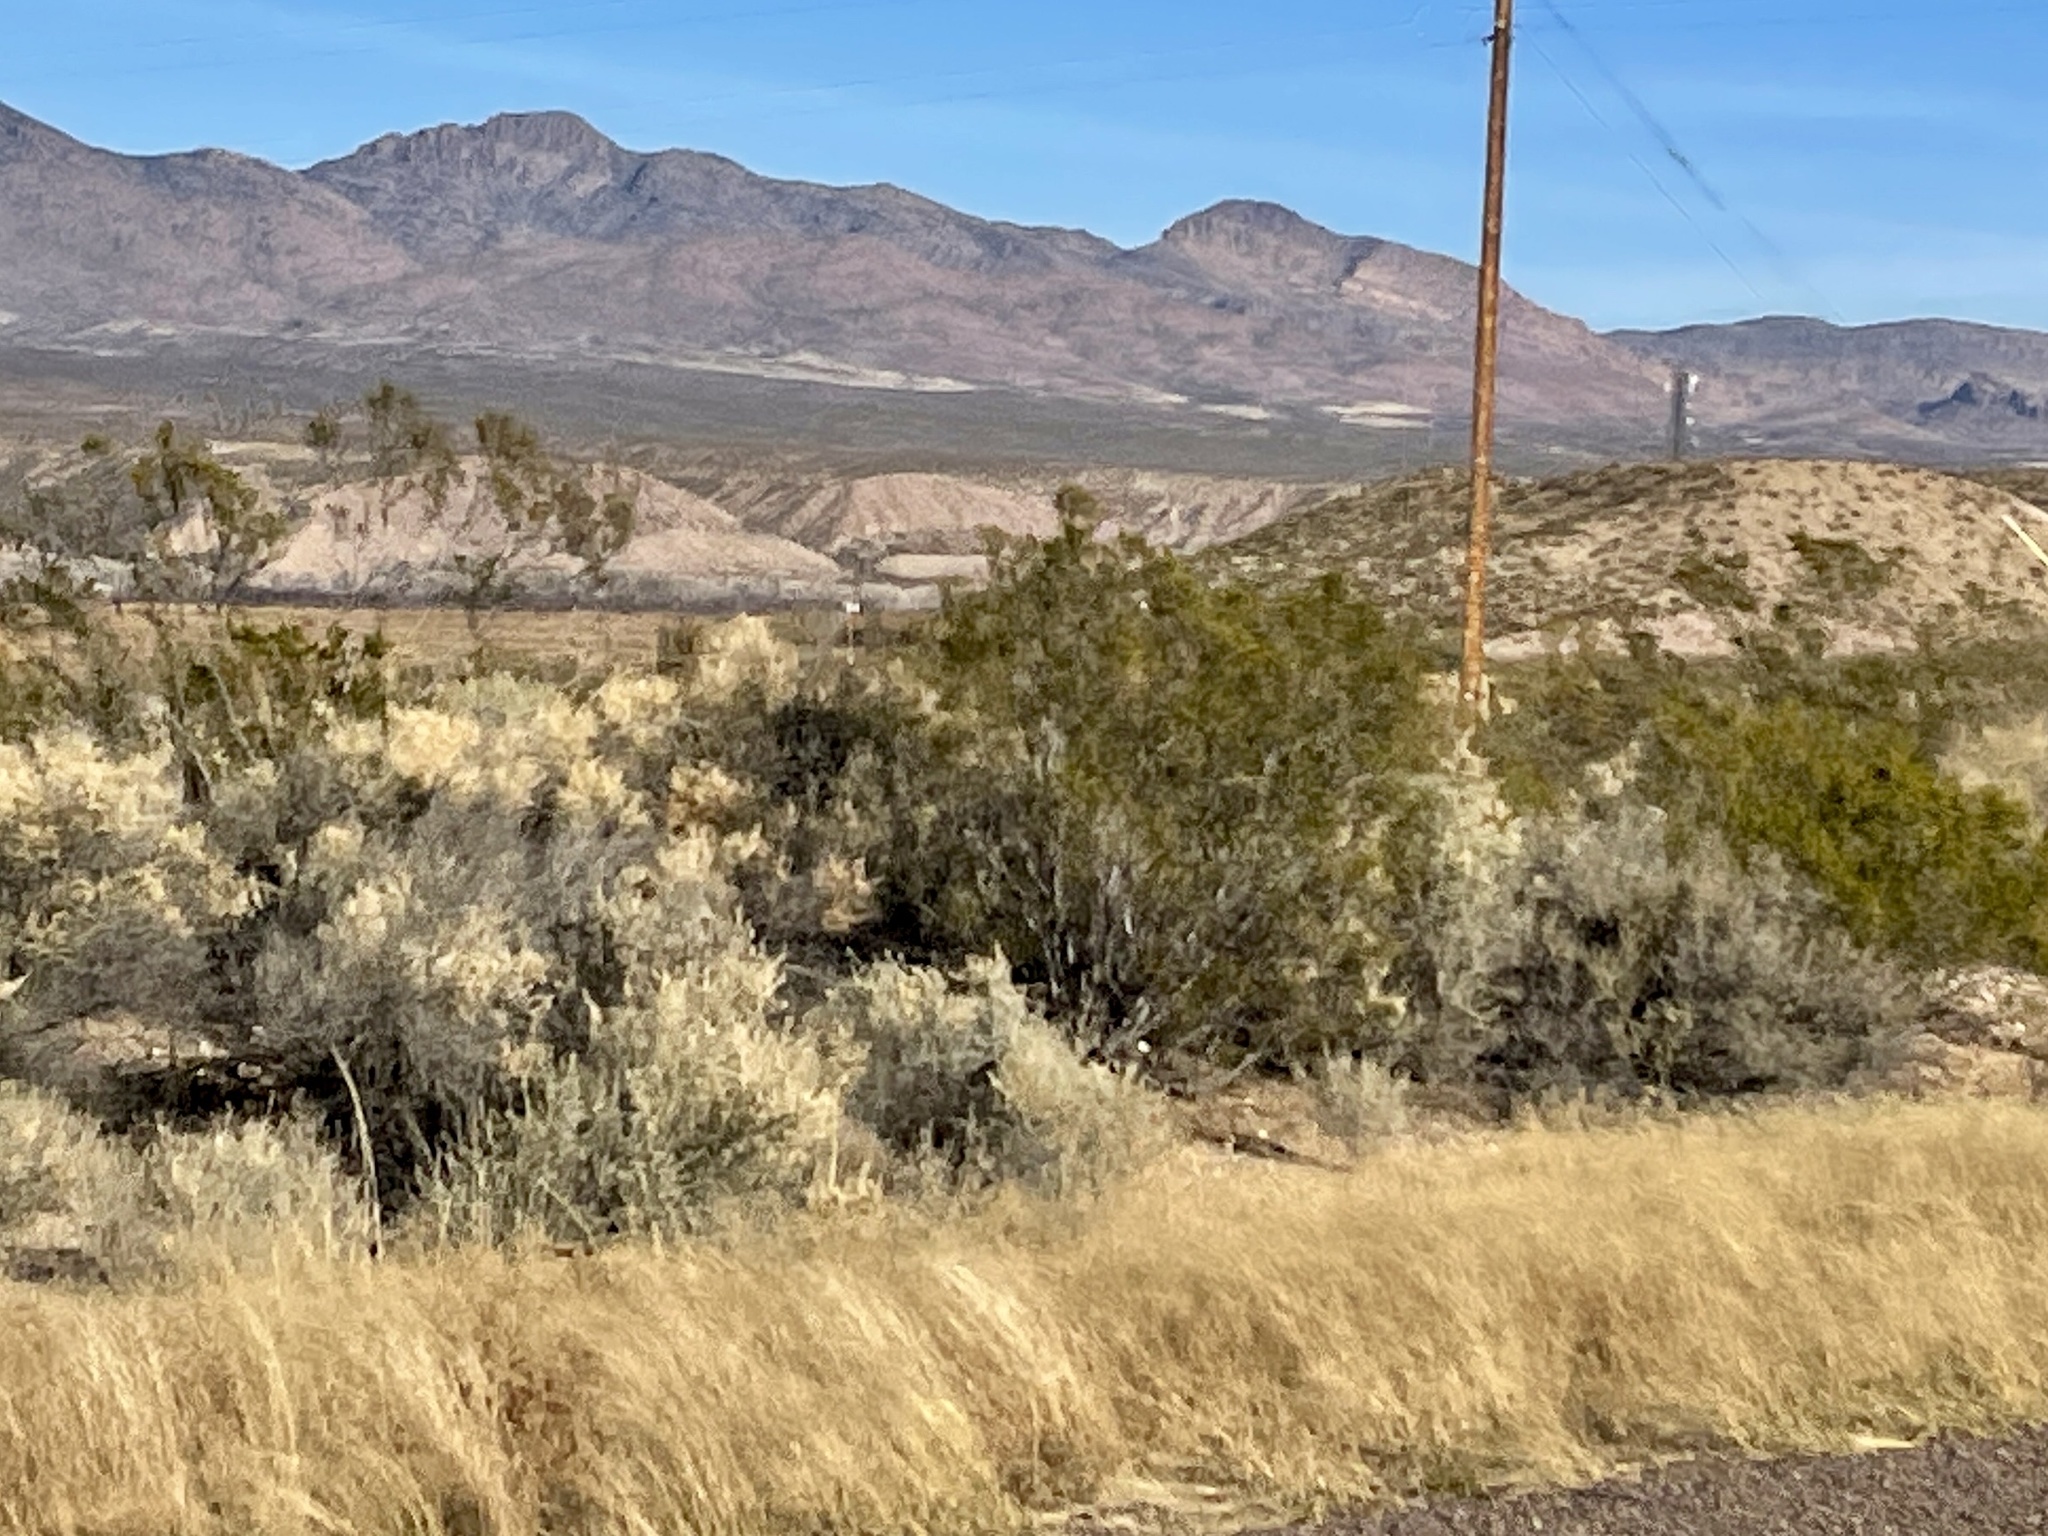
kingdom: Plantae
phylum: Tracheophyta
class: Magnoliopsida
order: Zygophyllales
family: Zygophyllaceae
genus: Larrea
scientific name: Larrea tridentata
